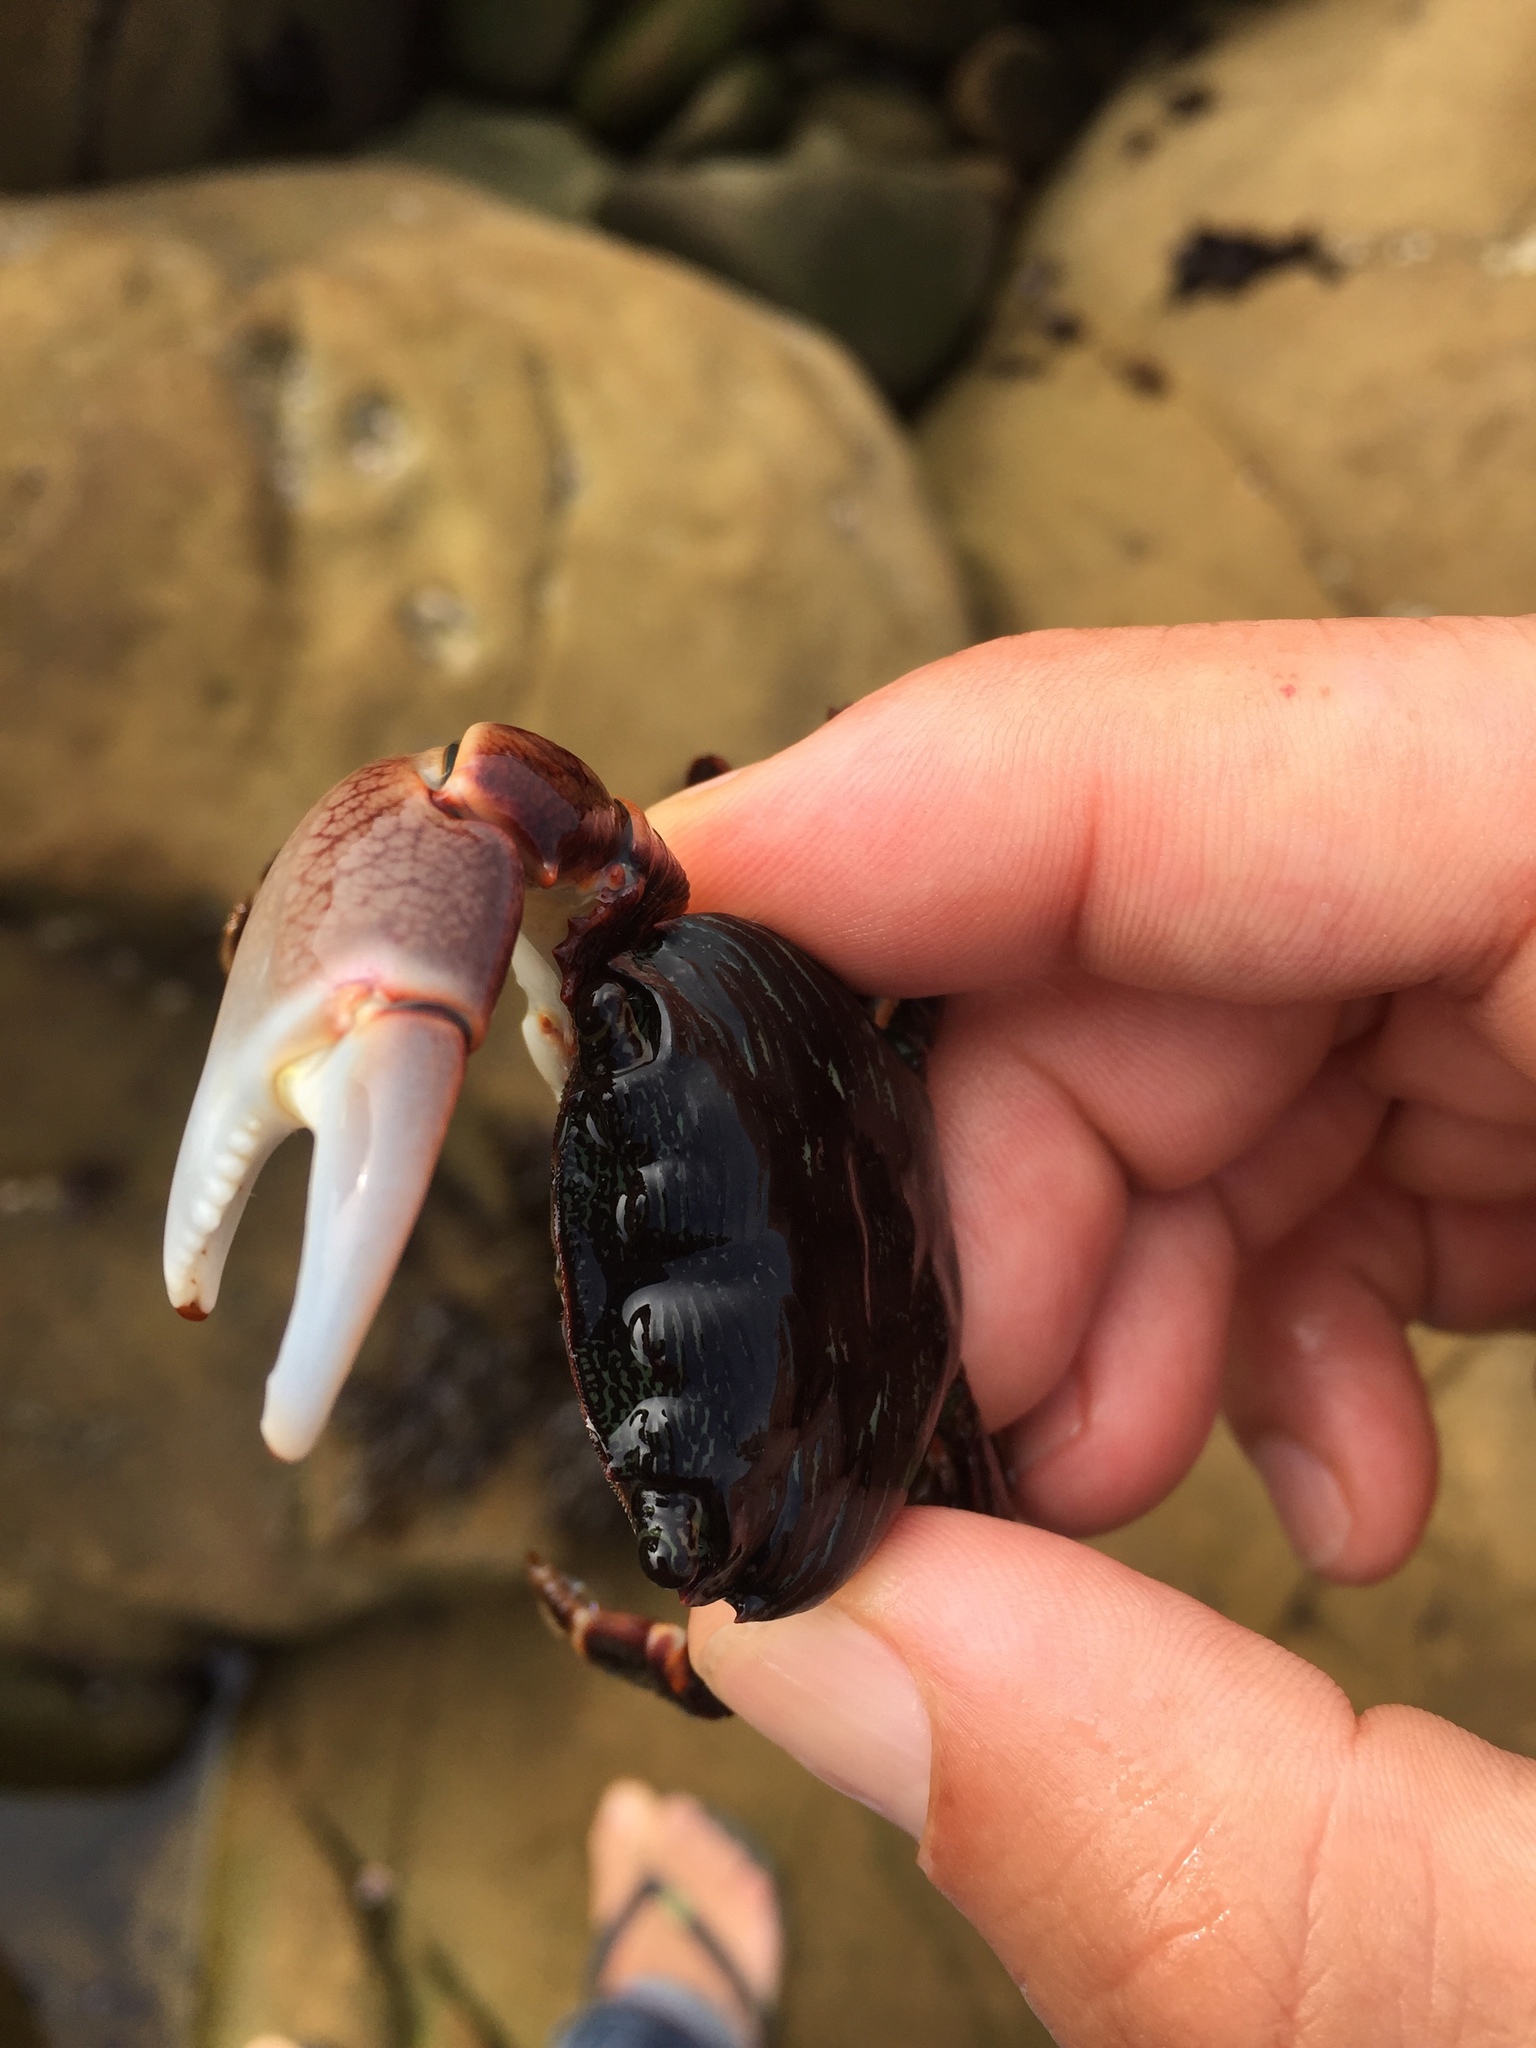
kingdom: Animalia
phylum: Arthropoda
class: Malacostraca
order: Decapoda
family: Grapsidae
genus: Pachygrapsus
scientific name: Pachygrapsus crassipes
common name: Striped shore crab
